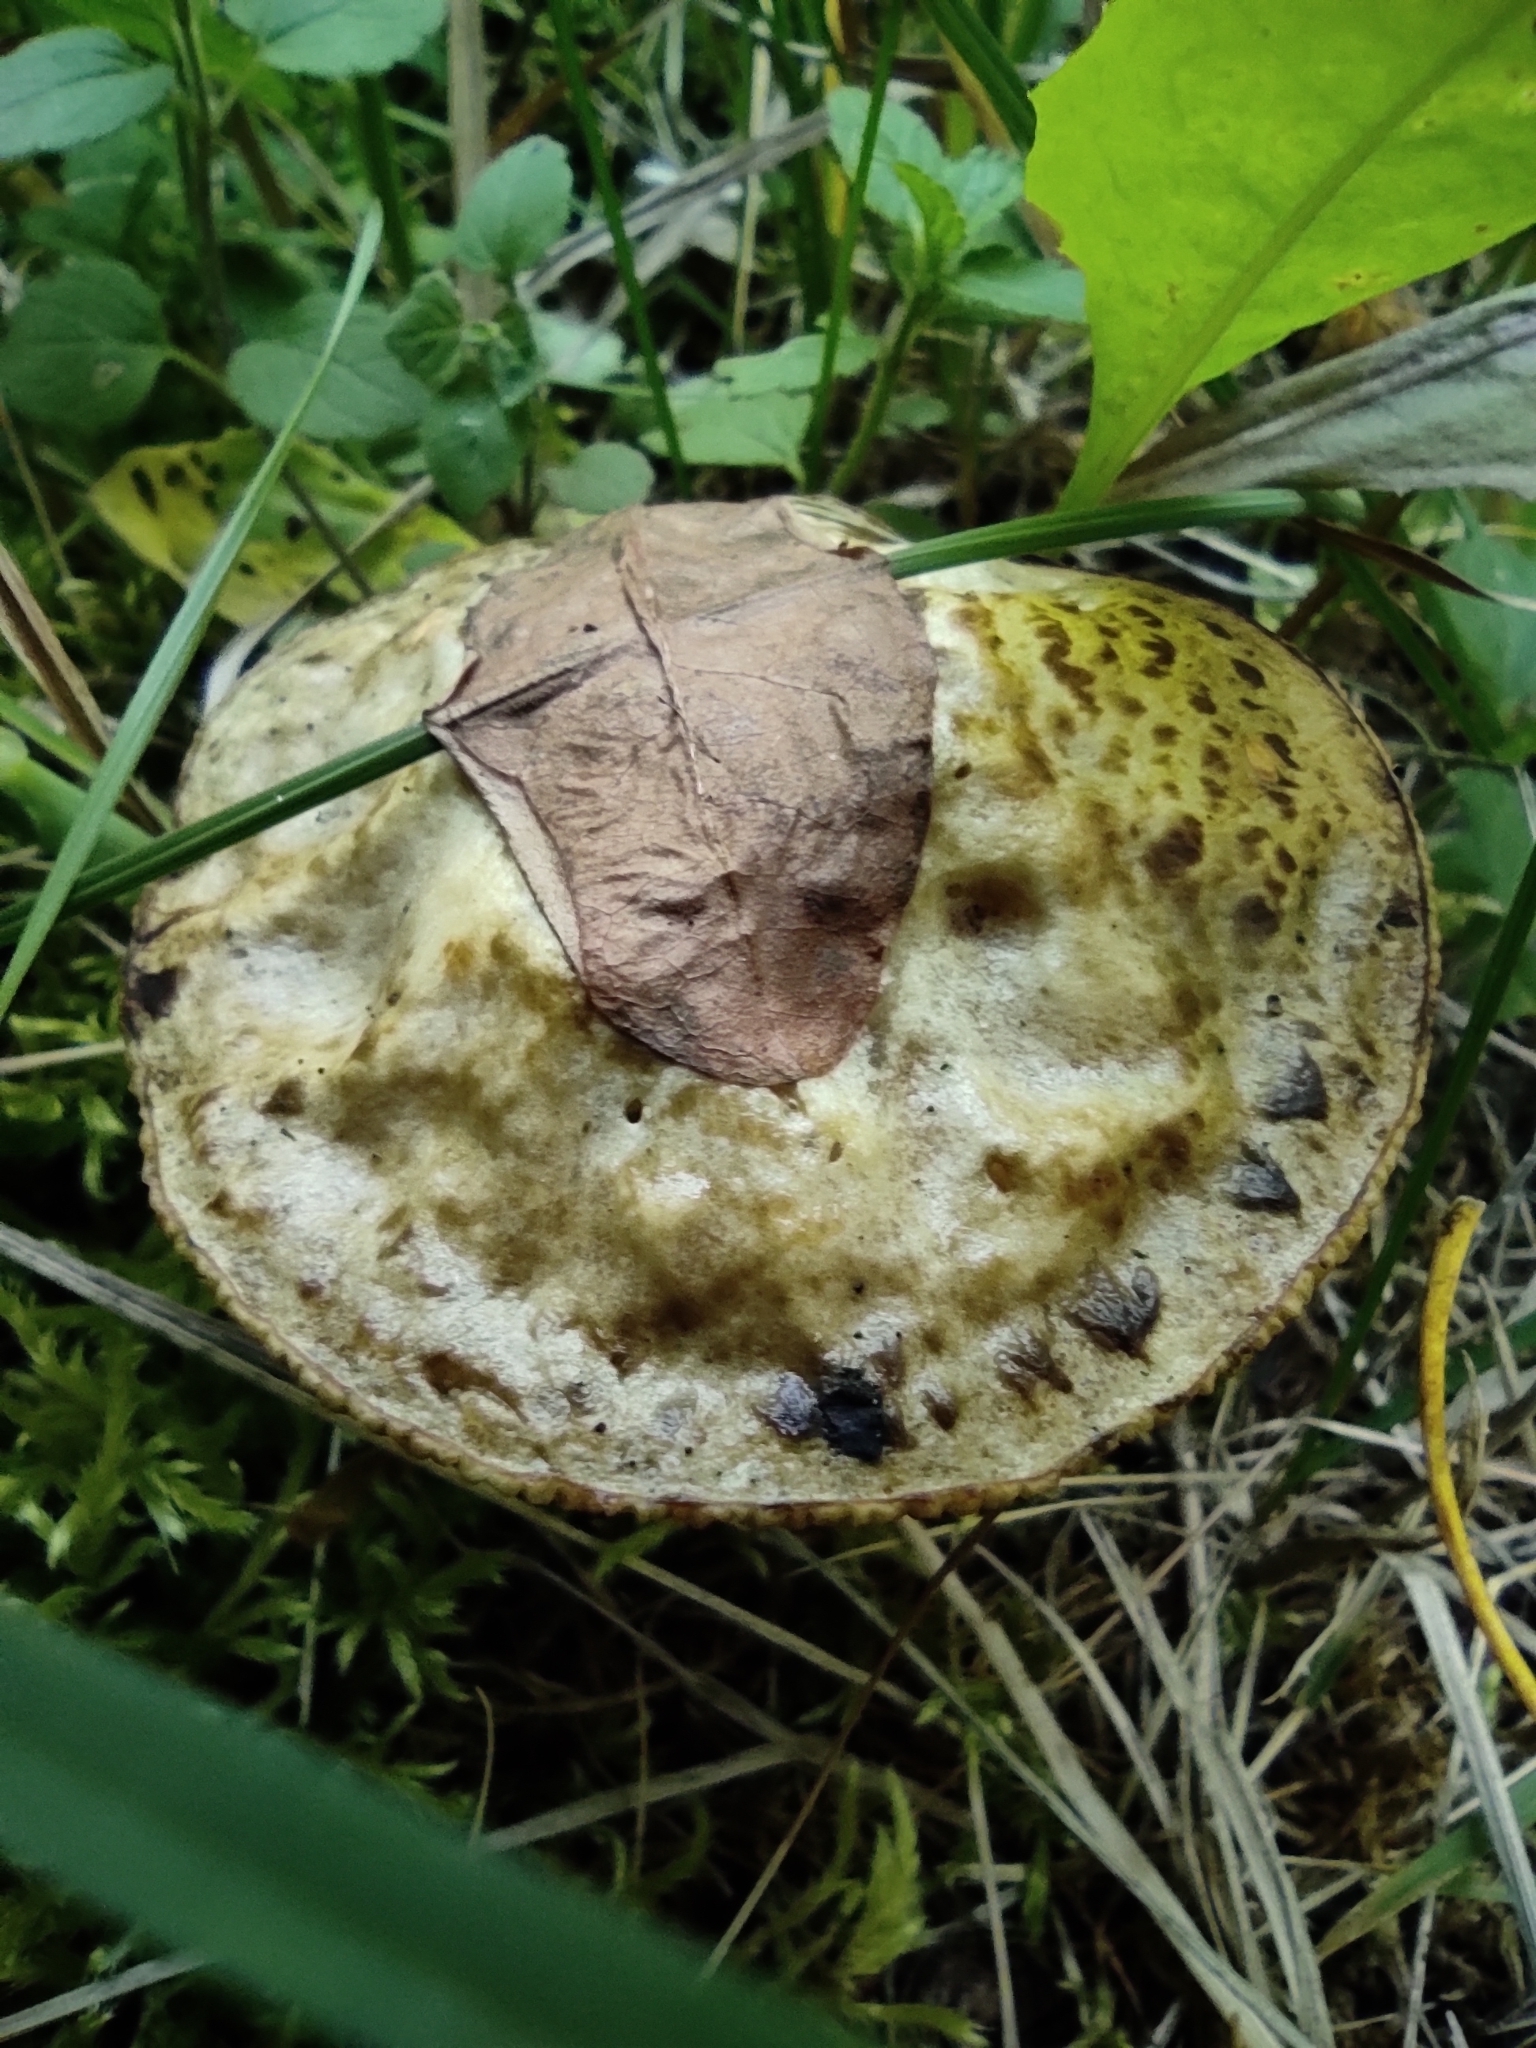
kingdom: Fungi
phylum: Basidiomycota
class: Agaricomycetes
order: Boletales
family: Suillaceae
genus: Suillus
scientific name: Suillus viscidus
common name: Sticky bolete
